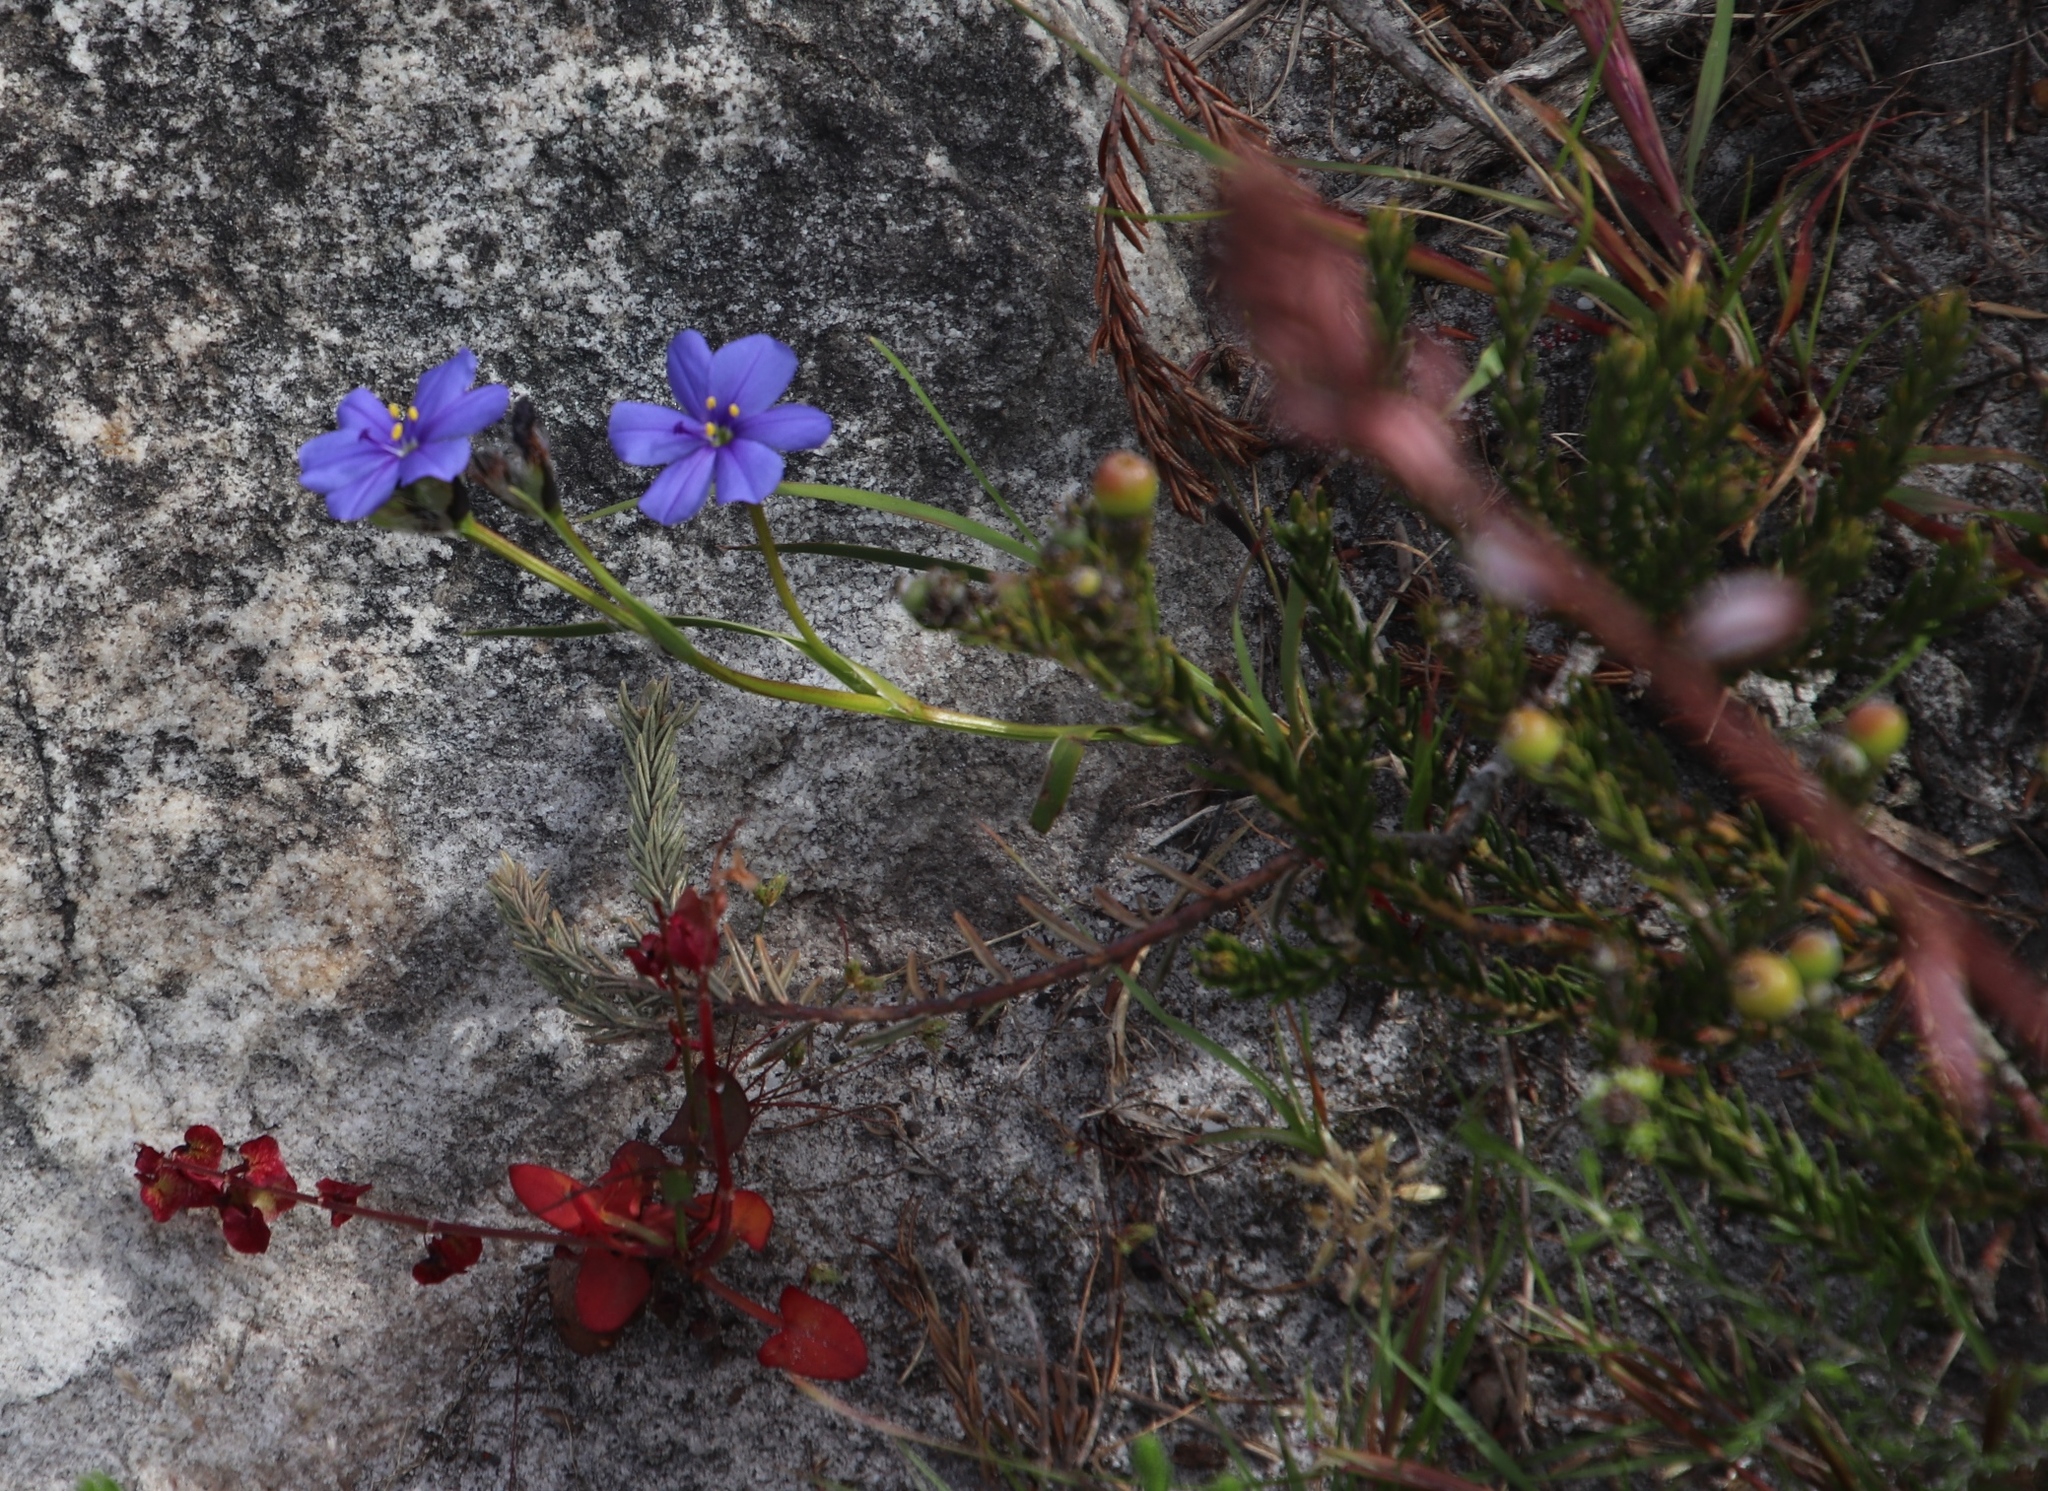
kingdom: Plantae
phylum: Tracheophyta
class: Liliopsida
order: Asparagales
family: Iridaceae
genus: Aristea
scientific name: Aristea africana
